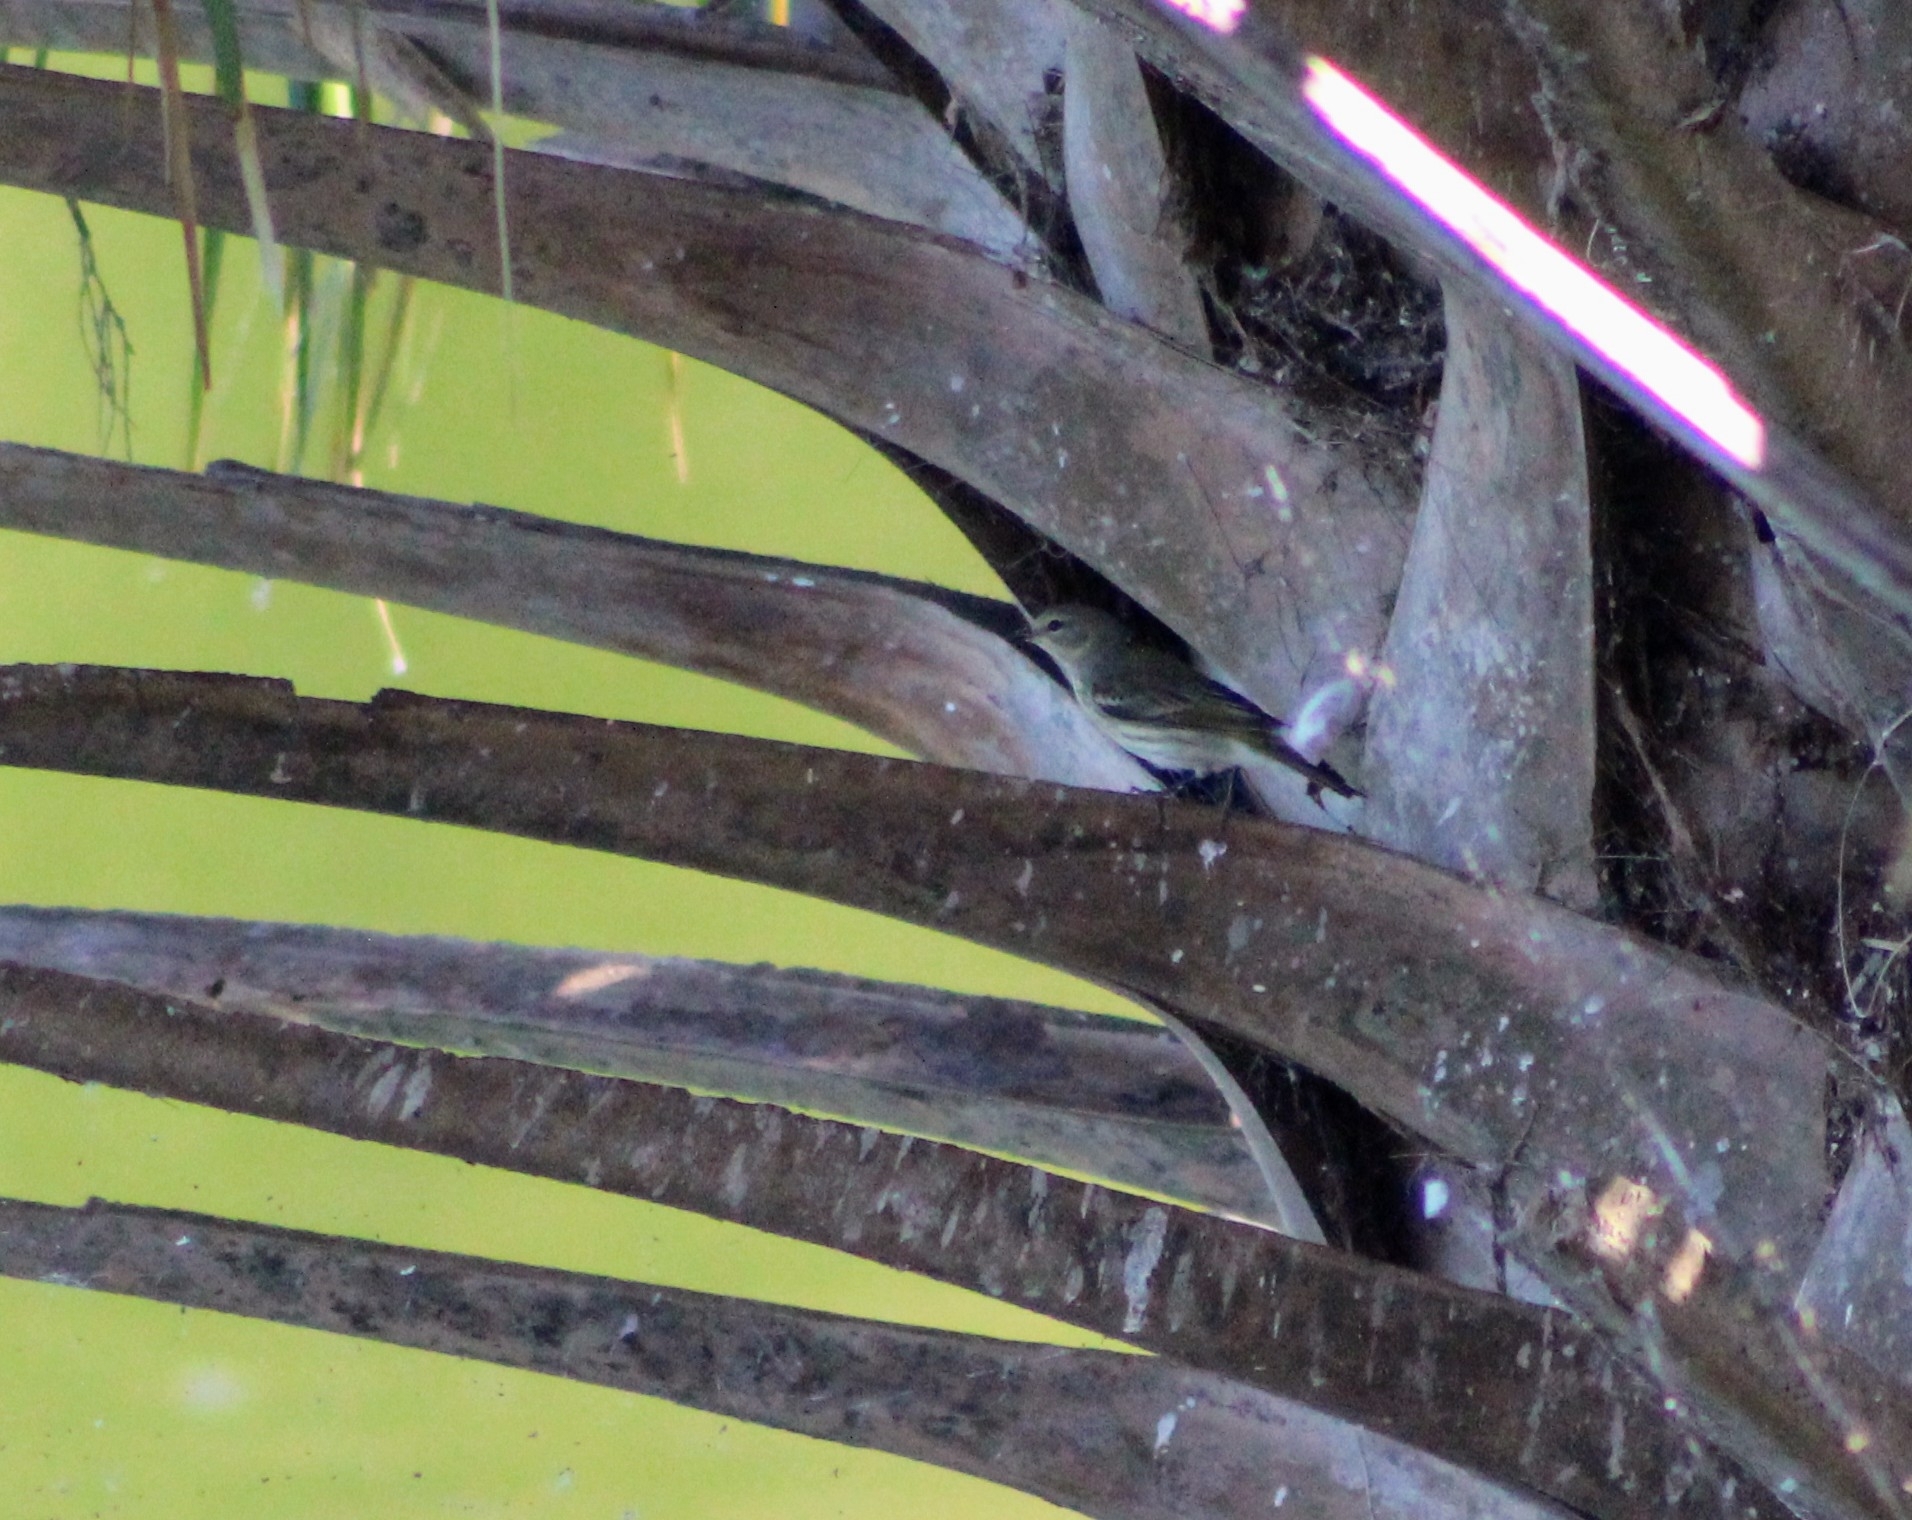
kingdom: Animalia
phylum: Chordata
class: Aves
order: Passeriformes
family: Parulidae
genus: Setophaga
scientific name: Setophaga tigrina
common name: Cape may warbler
